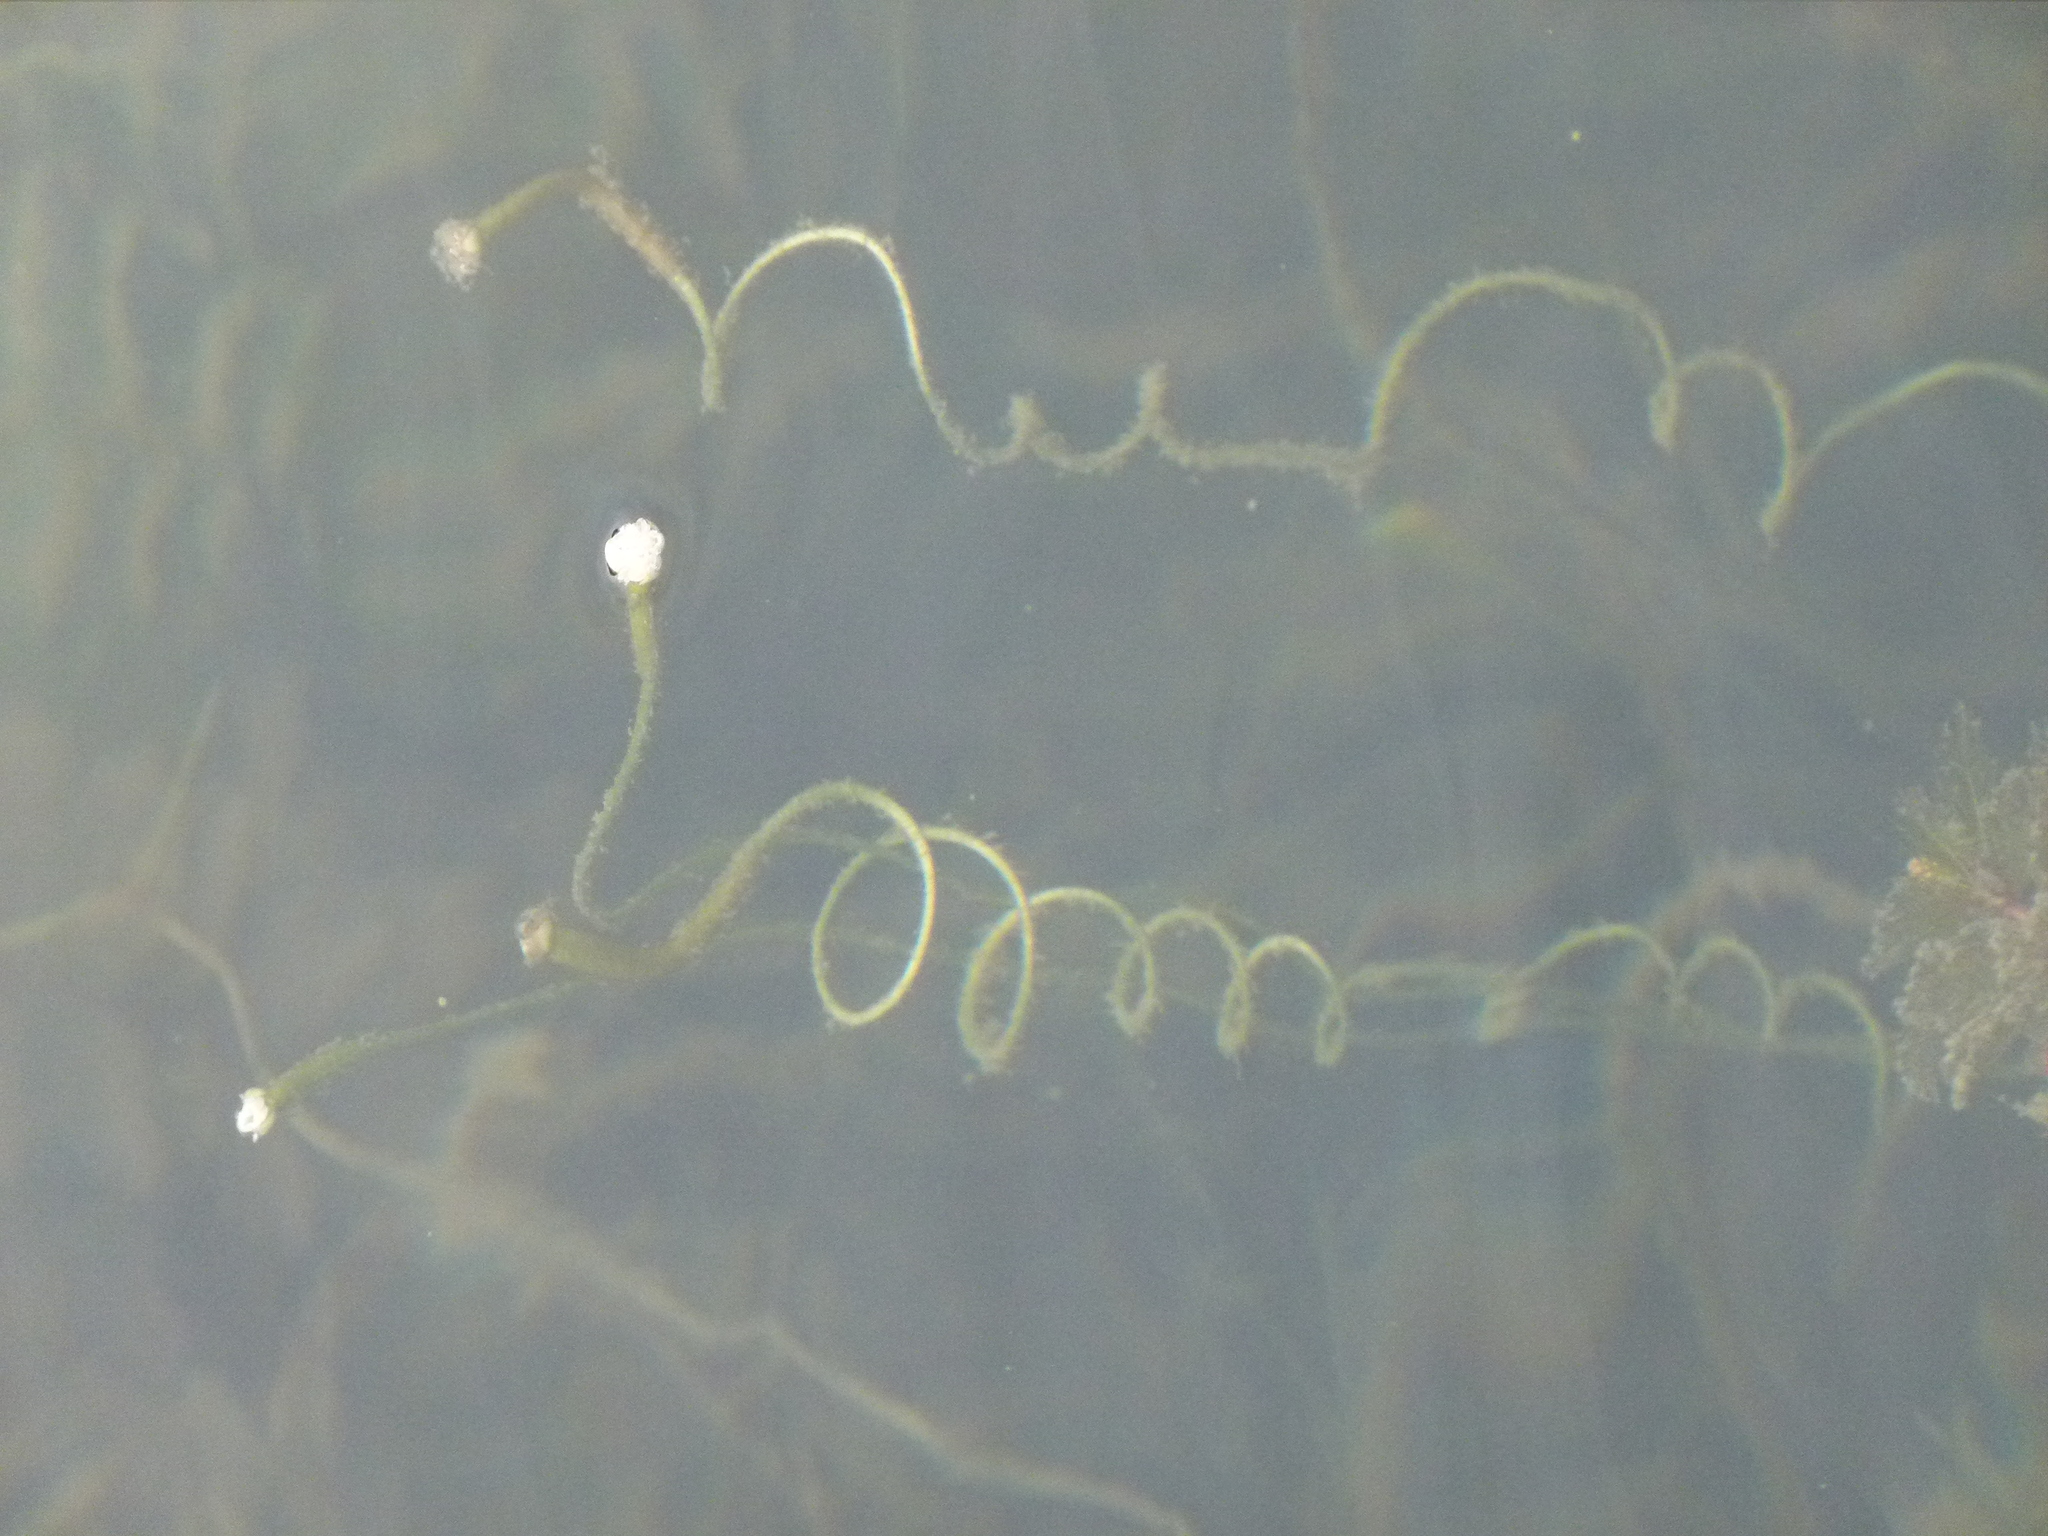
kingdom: Plantae
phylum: Tracheophyta
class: Liliopsida
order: Alismatales
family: Hydrocharitaceae
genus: Vallisneria
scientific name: Vallisneria americana
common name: American eelgrass
